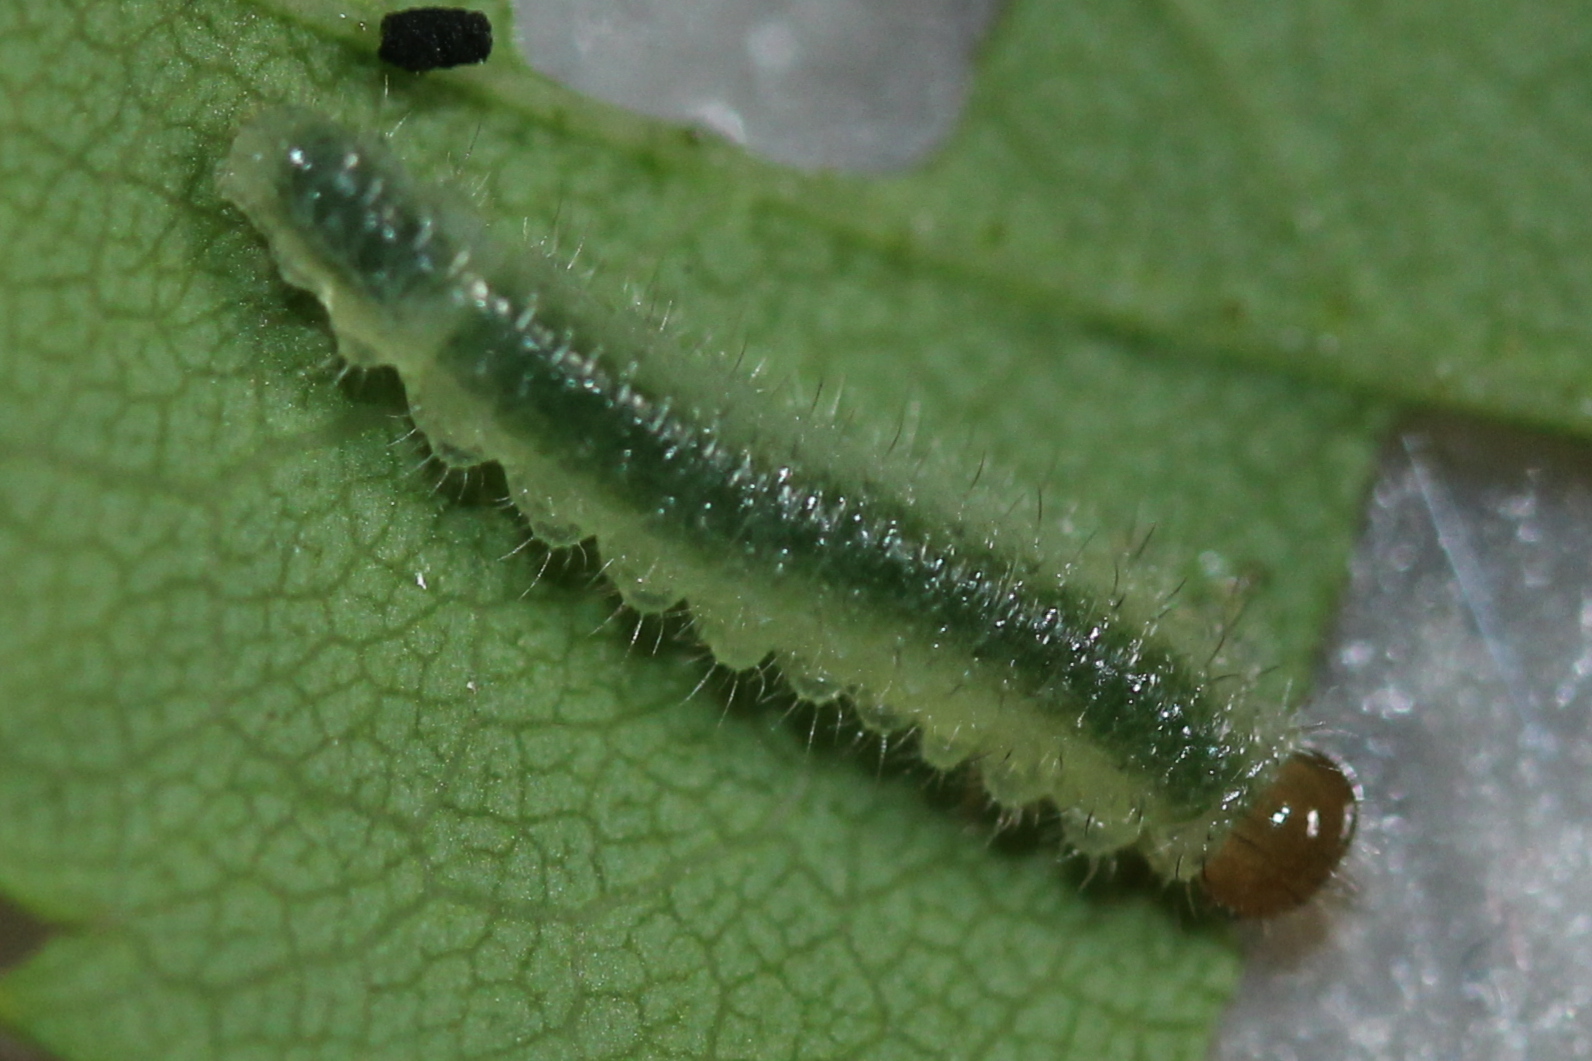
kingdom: Animalia
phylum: Arthropoda
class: Insecta
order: Hymenoptera
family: Tenthredinidae
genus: Cladius
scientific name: Cladius pectinicornis
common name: Sawfly
